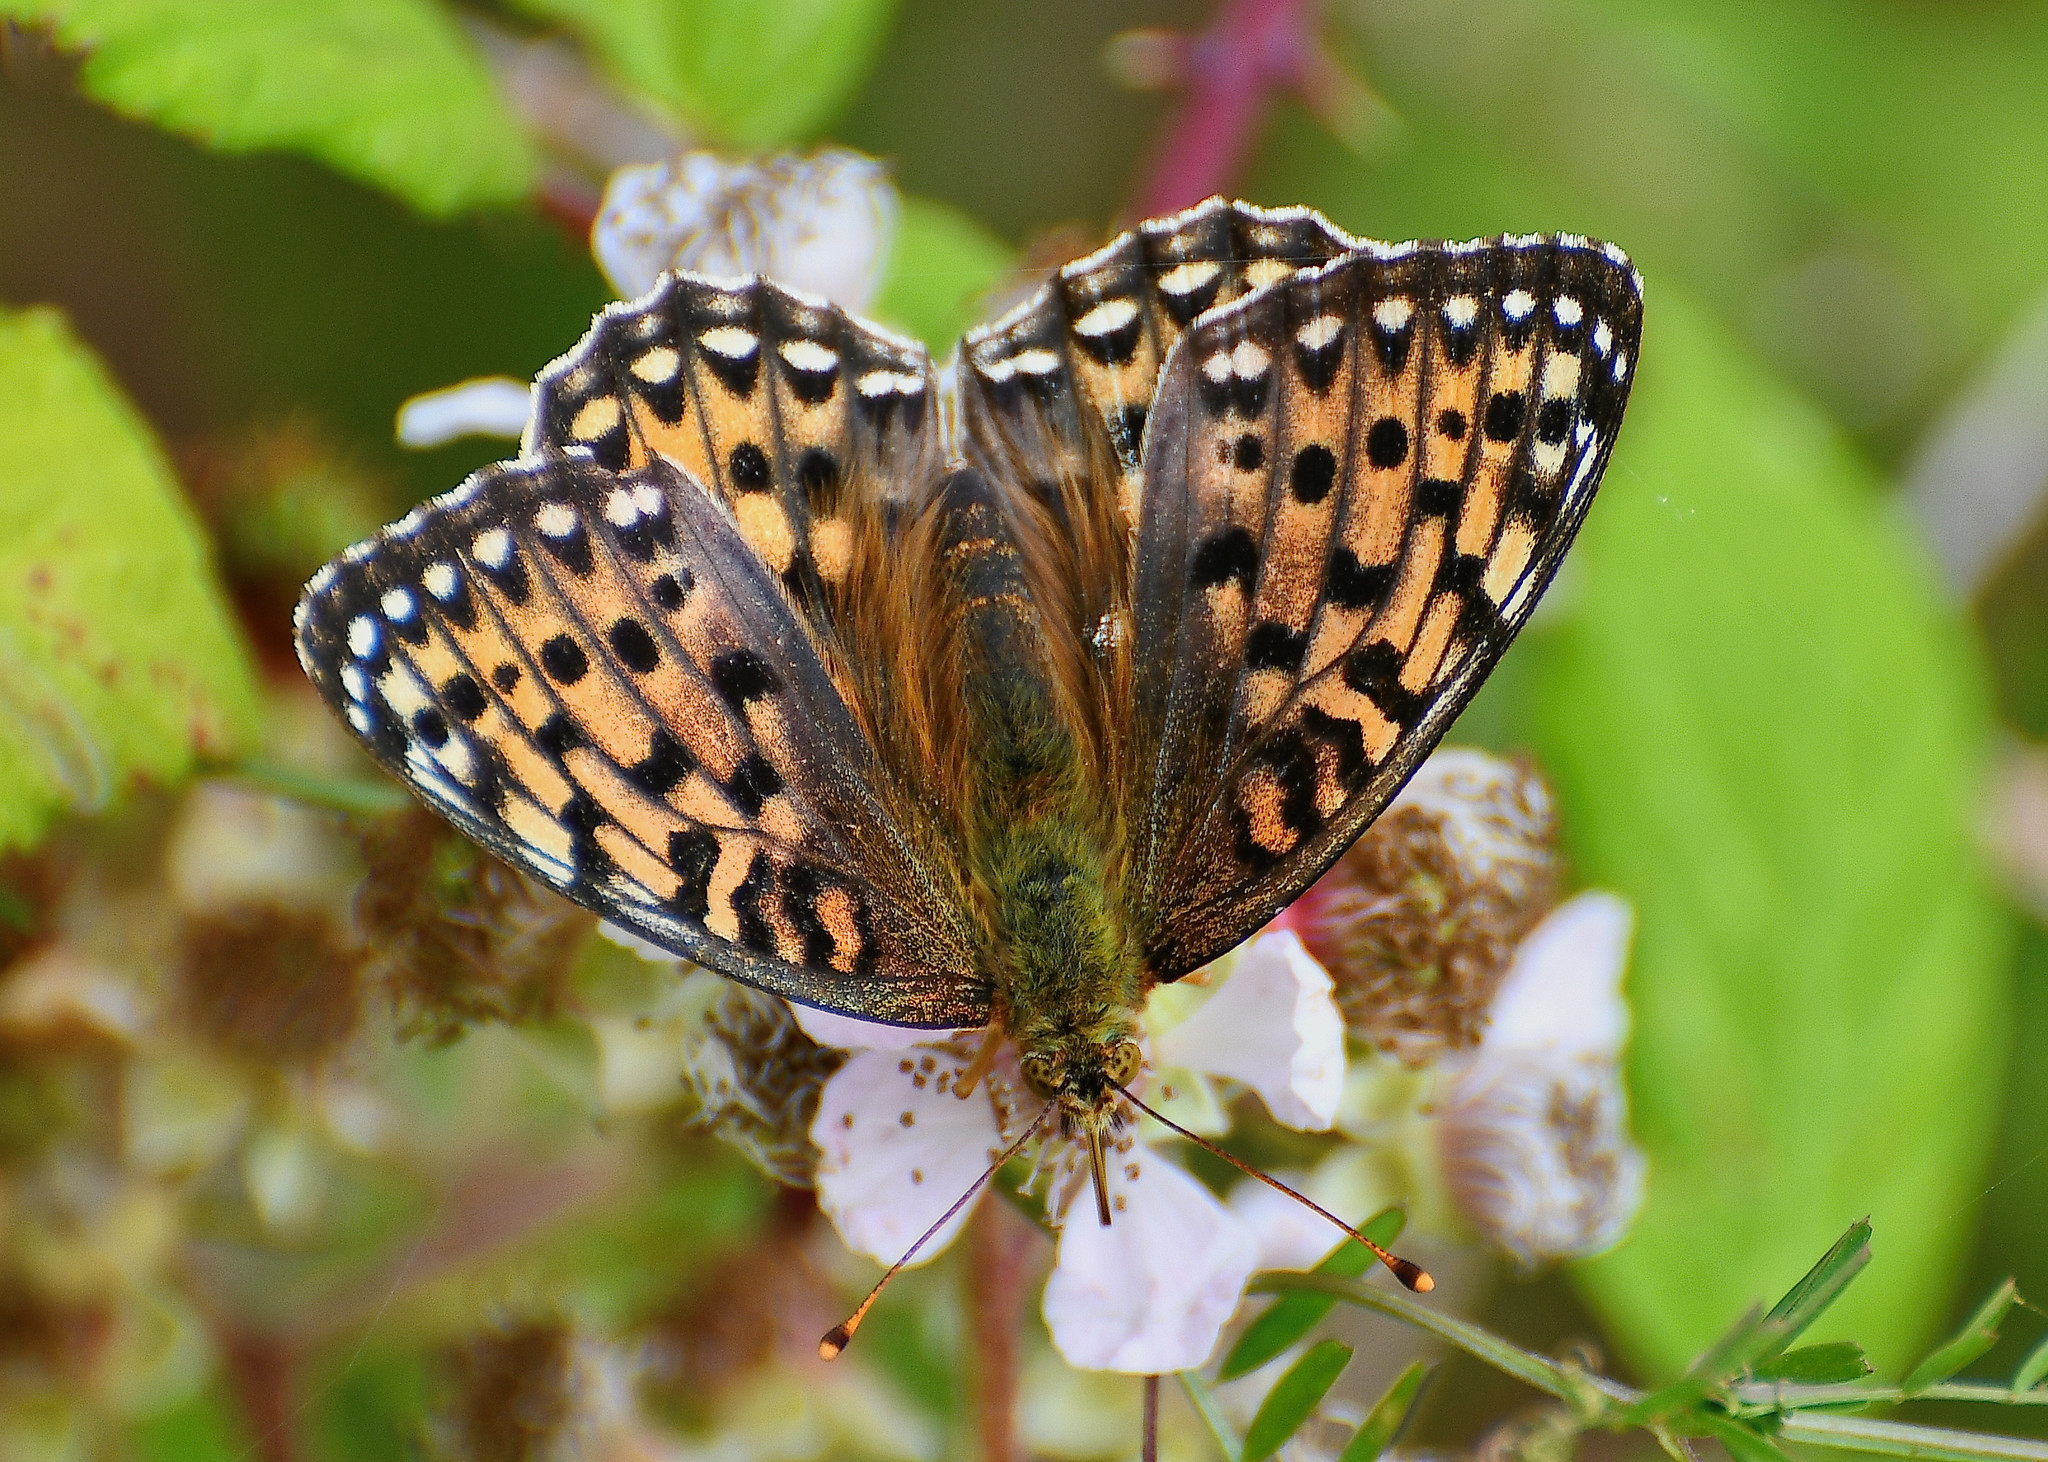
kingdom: Animalia
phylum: Arthropoda
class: Insecta
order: Lepidoptera
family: Nymphalidae
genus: Speyeria
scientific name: Speyeria aglaja
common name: Dark green fritillary
